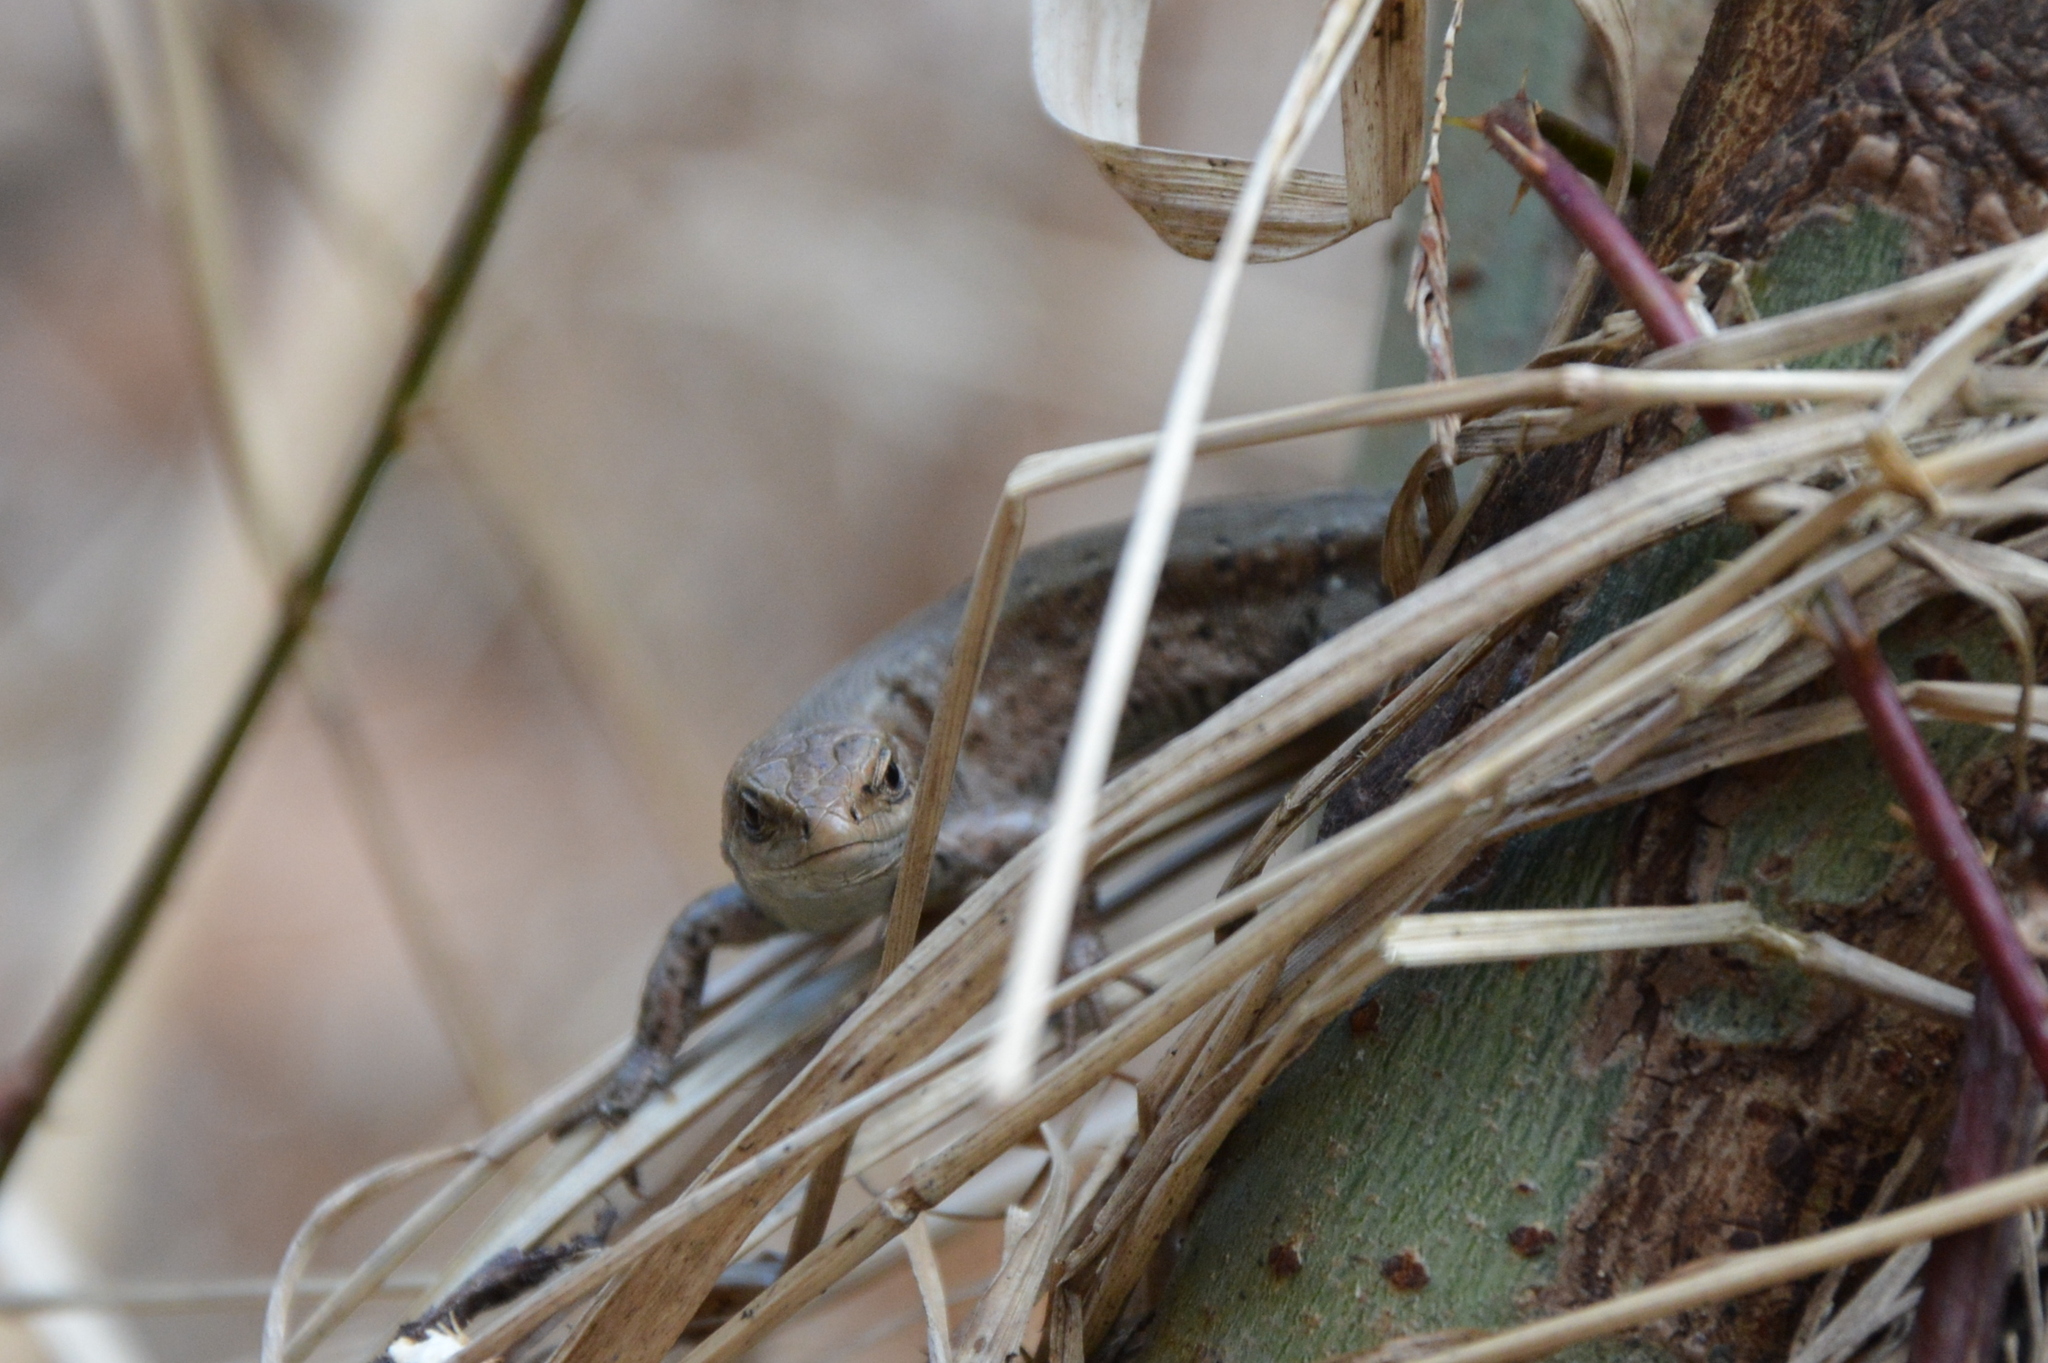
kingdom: Animalia
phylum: Chordata
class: Squamata
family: Lacertidae
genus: Zootoca
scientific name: Zootoca vivipara
